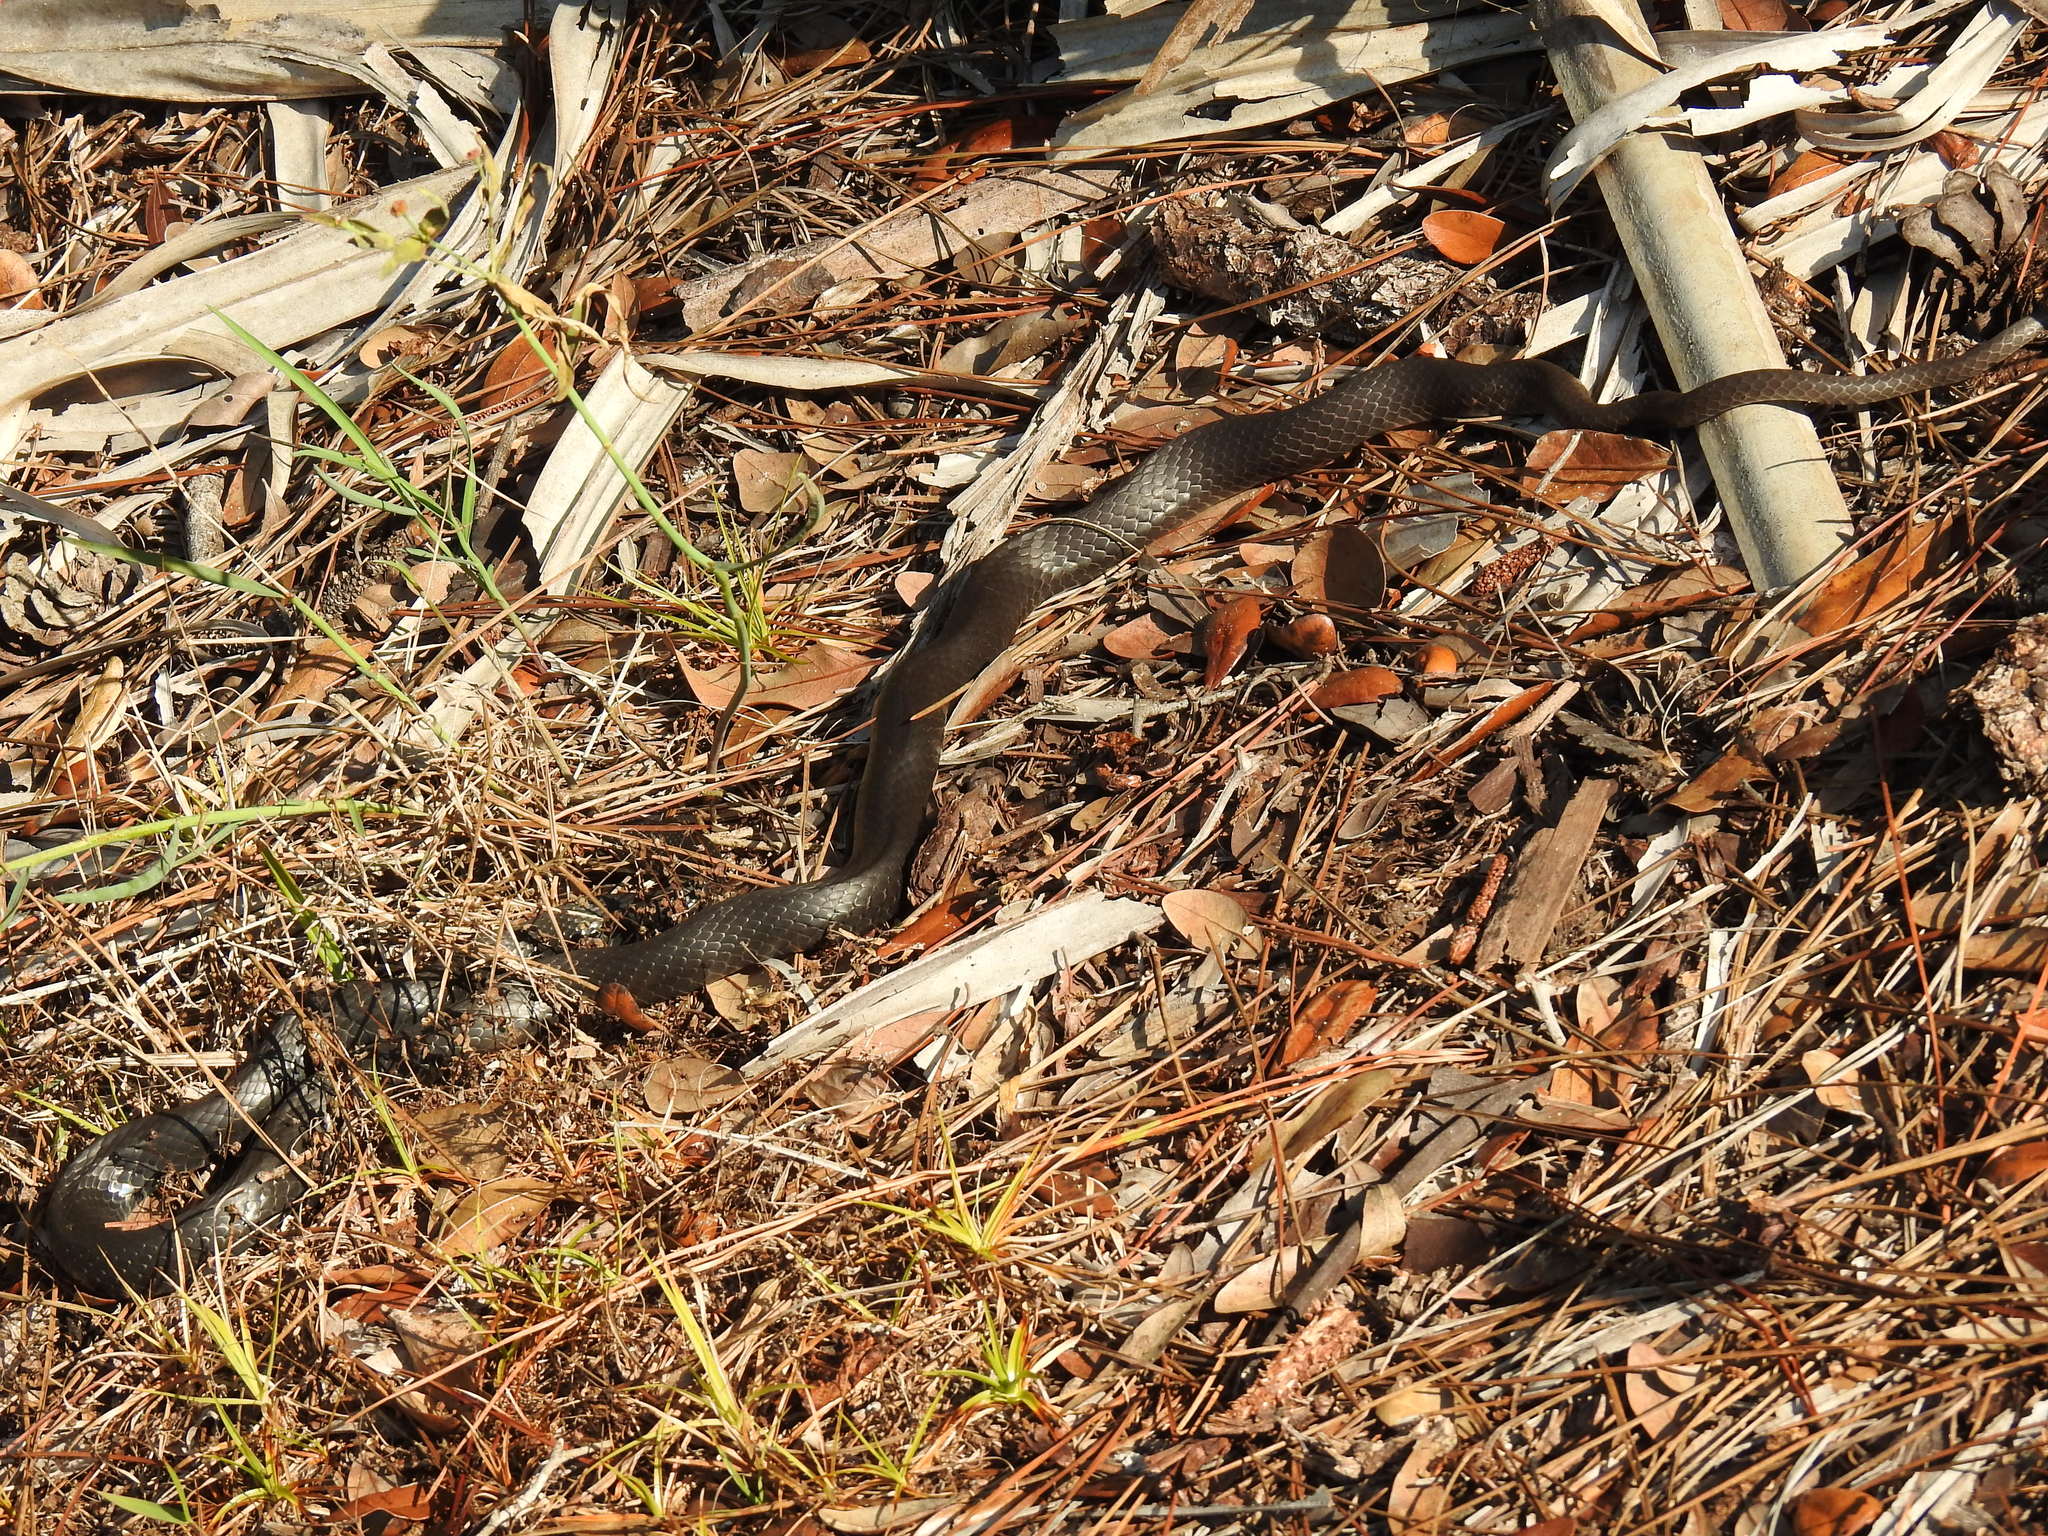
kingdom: Animalia
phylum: Chordata
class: Squamata
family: Colubridae
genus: Coluber
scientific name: Coluber constrictor
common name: Eastern racer
